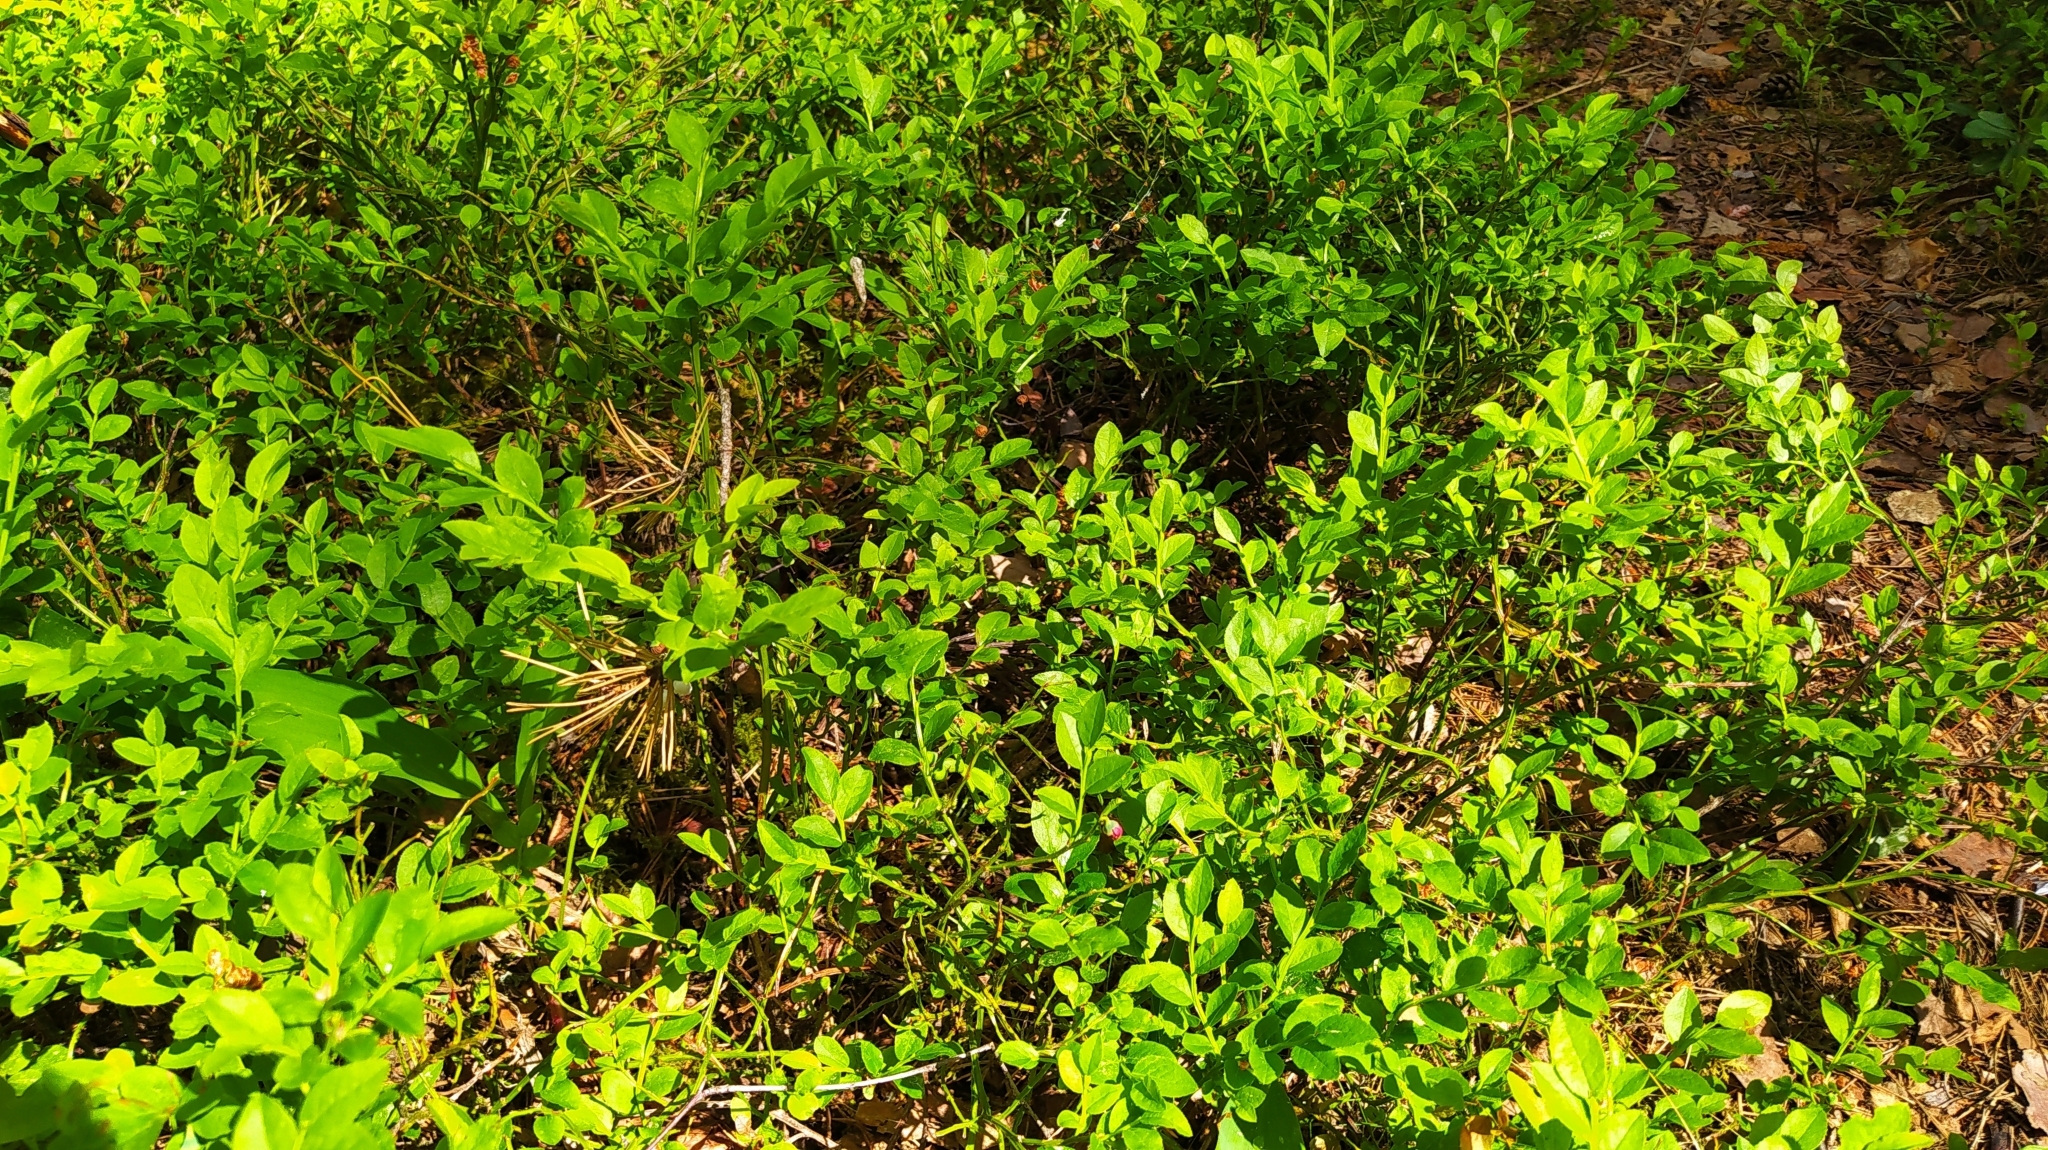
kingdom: Plantae
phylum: Tracheophyta
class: Magnoliopsida
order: Ericales
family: Ericaceae
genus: Vaccinium
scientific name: Vaccinium myrtillus
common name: Bilberry
